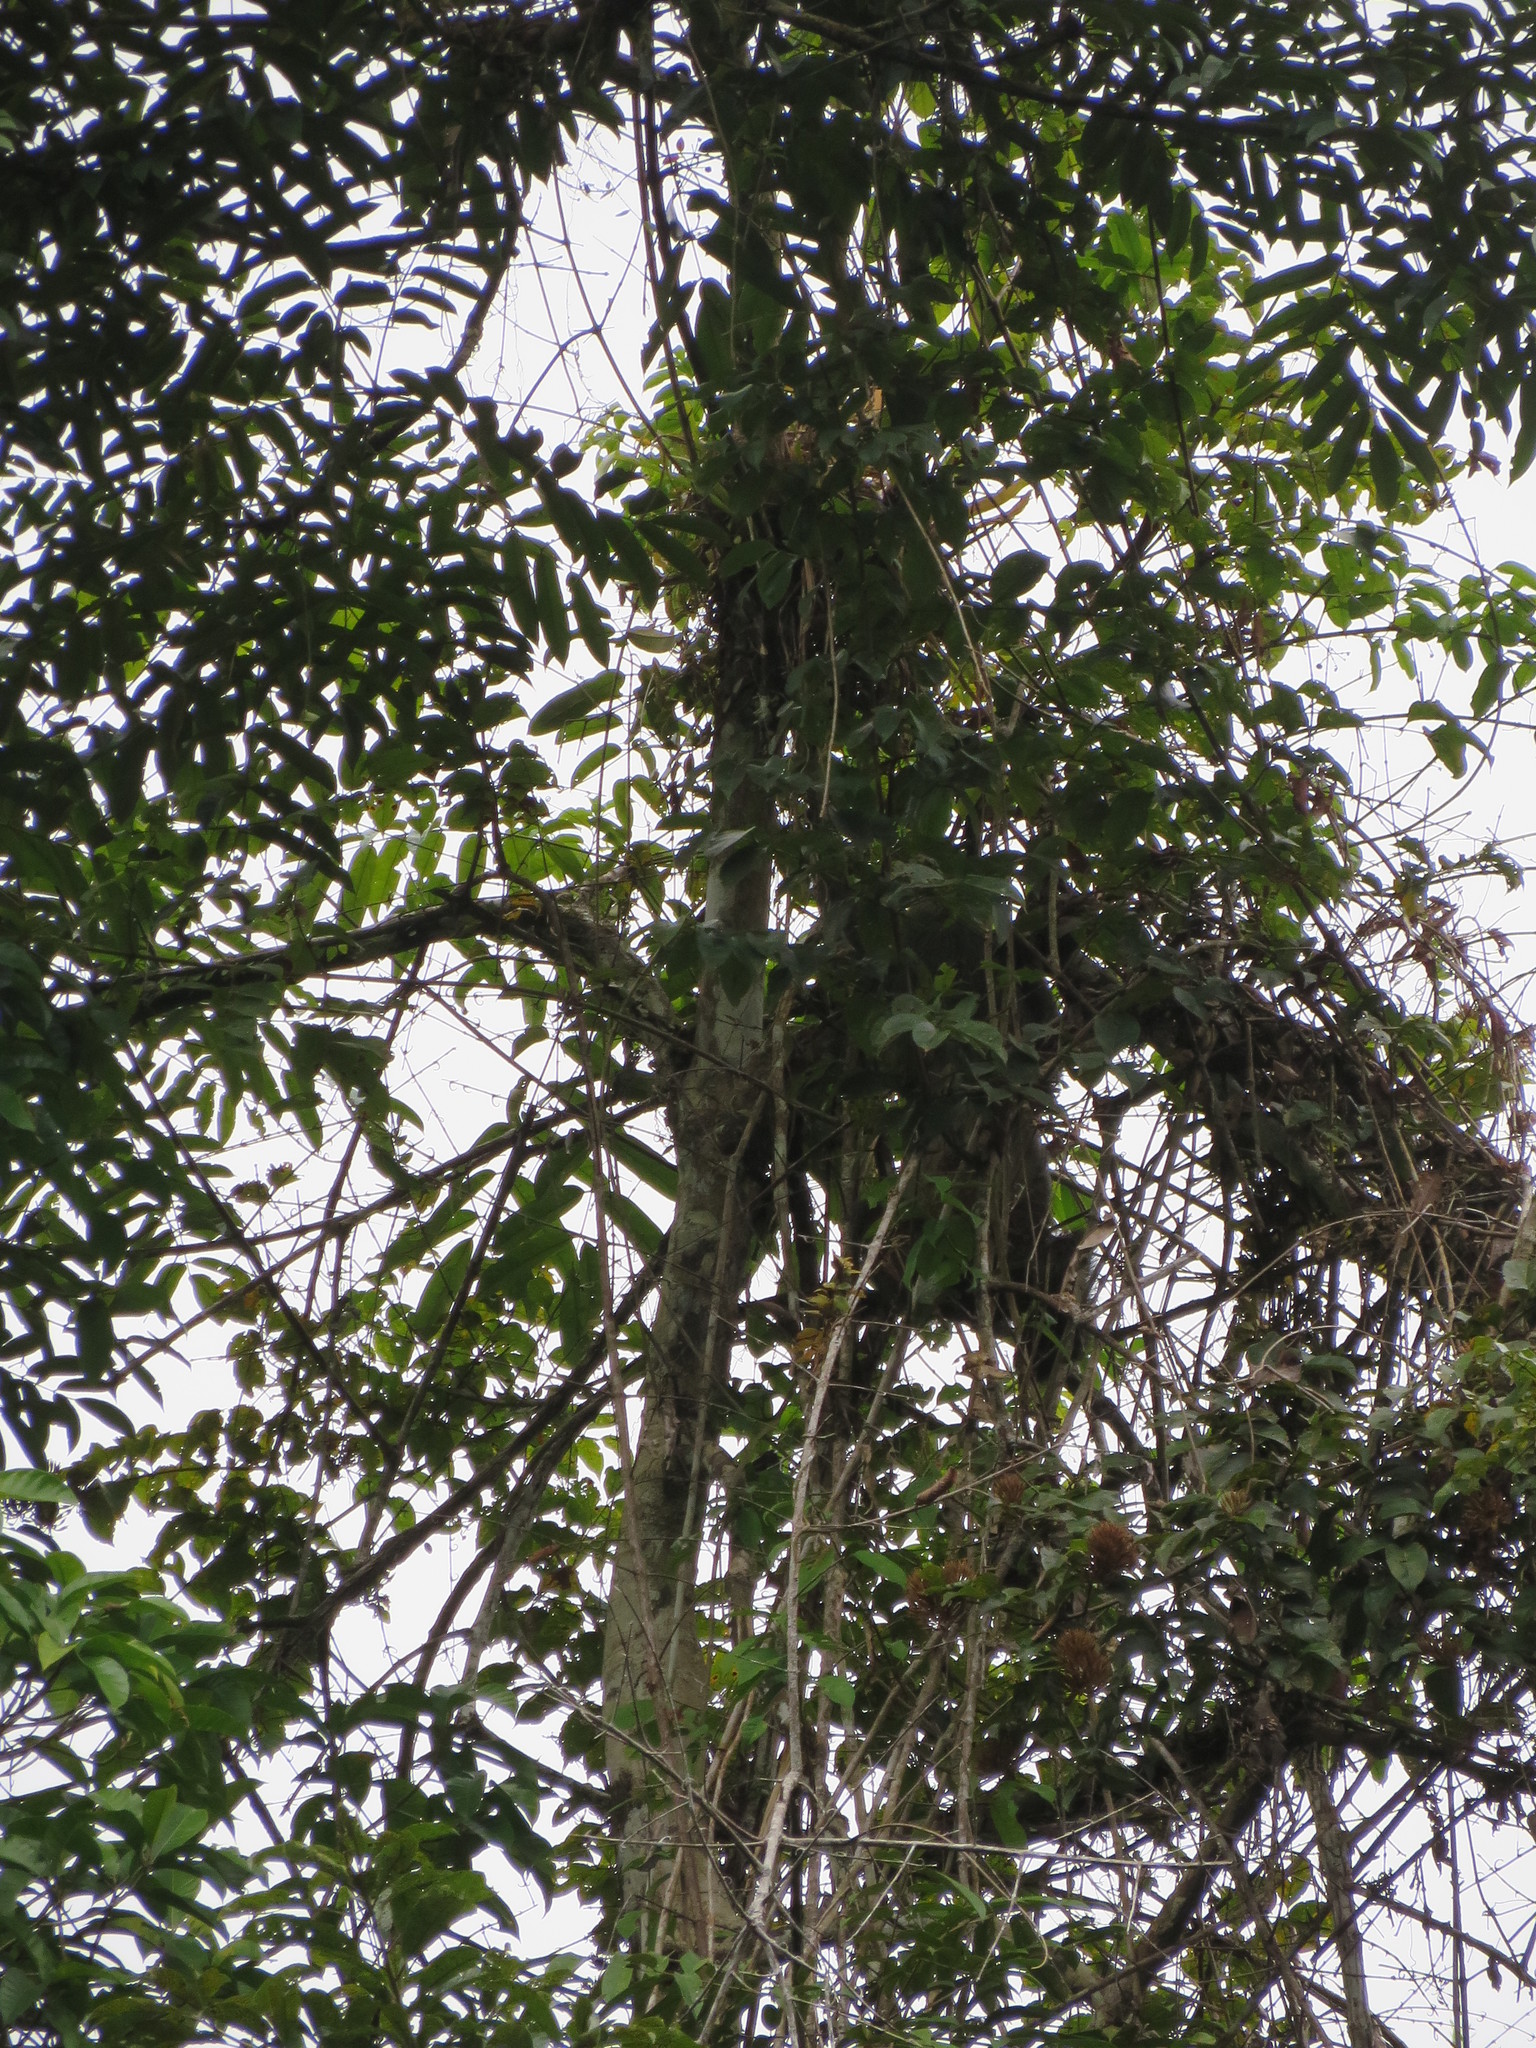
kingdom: Animalia
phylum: Chordata
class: Mammalia
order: Pilosa
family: Megalonychidae
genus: Choloepus
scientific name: Choloepus didactylus
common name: Southern two-toed sloth
